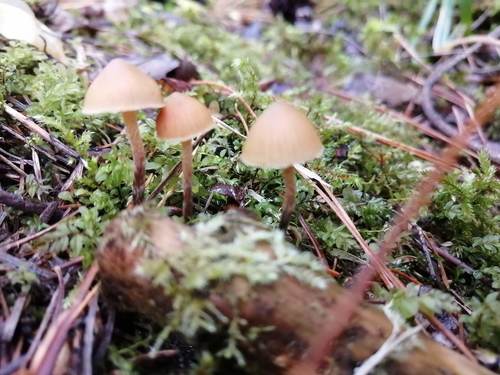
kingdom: Fungi
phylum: Basidiomycota
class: Agaricomycetes
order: Agaricales
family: Strophariaceae
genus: Pholiota
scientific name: Pholiota lignicola
